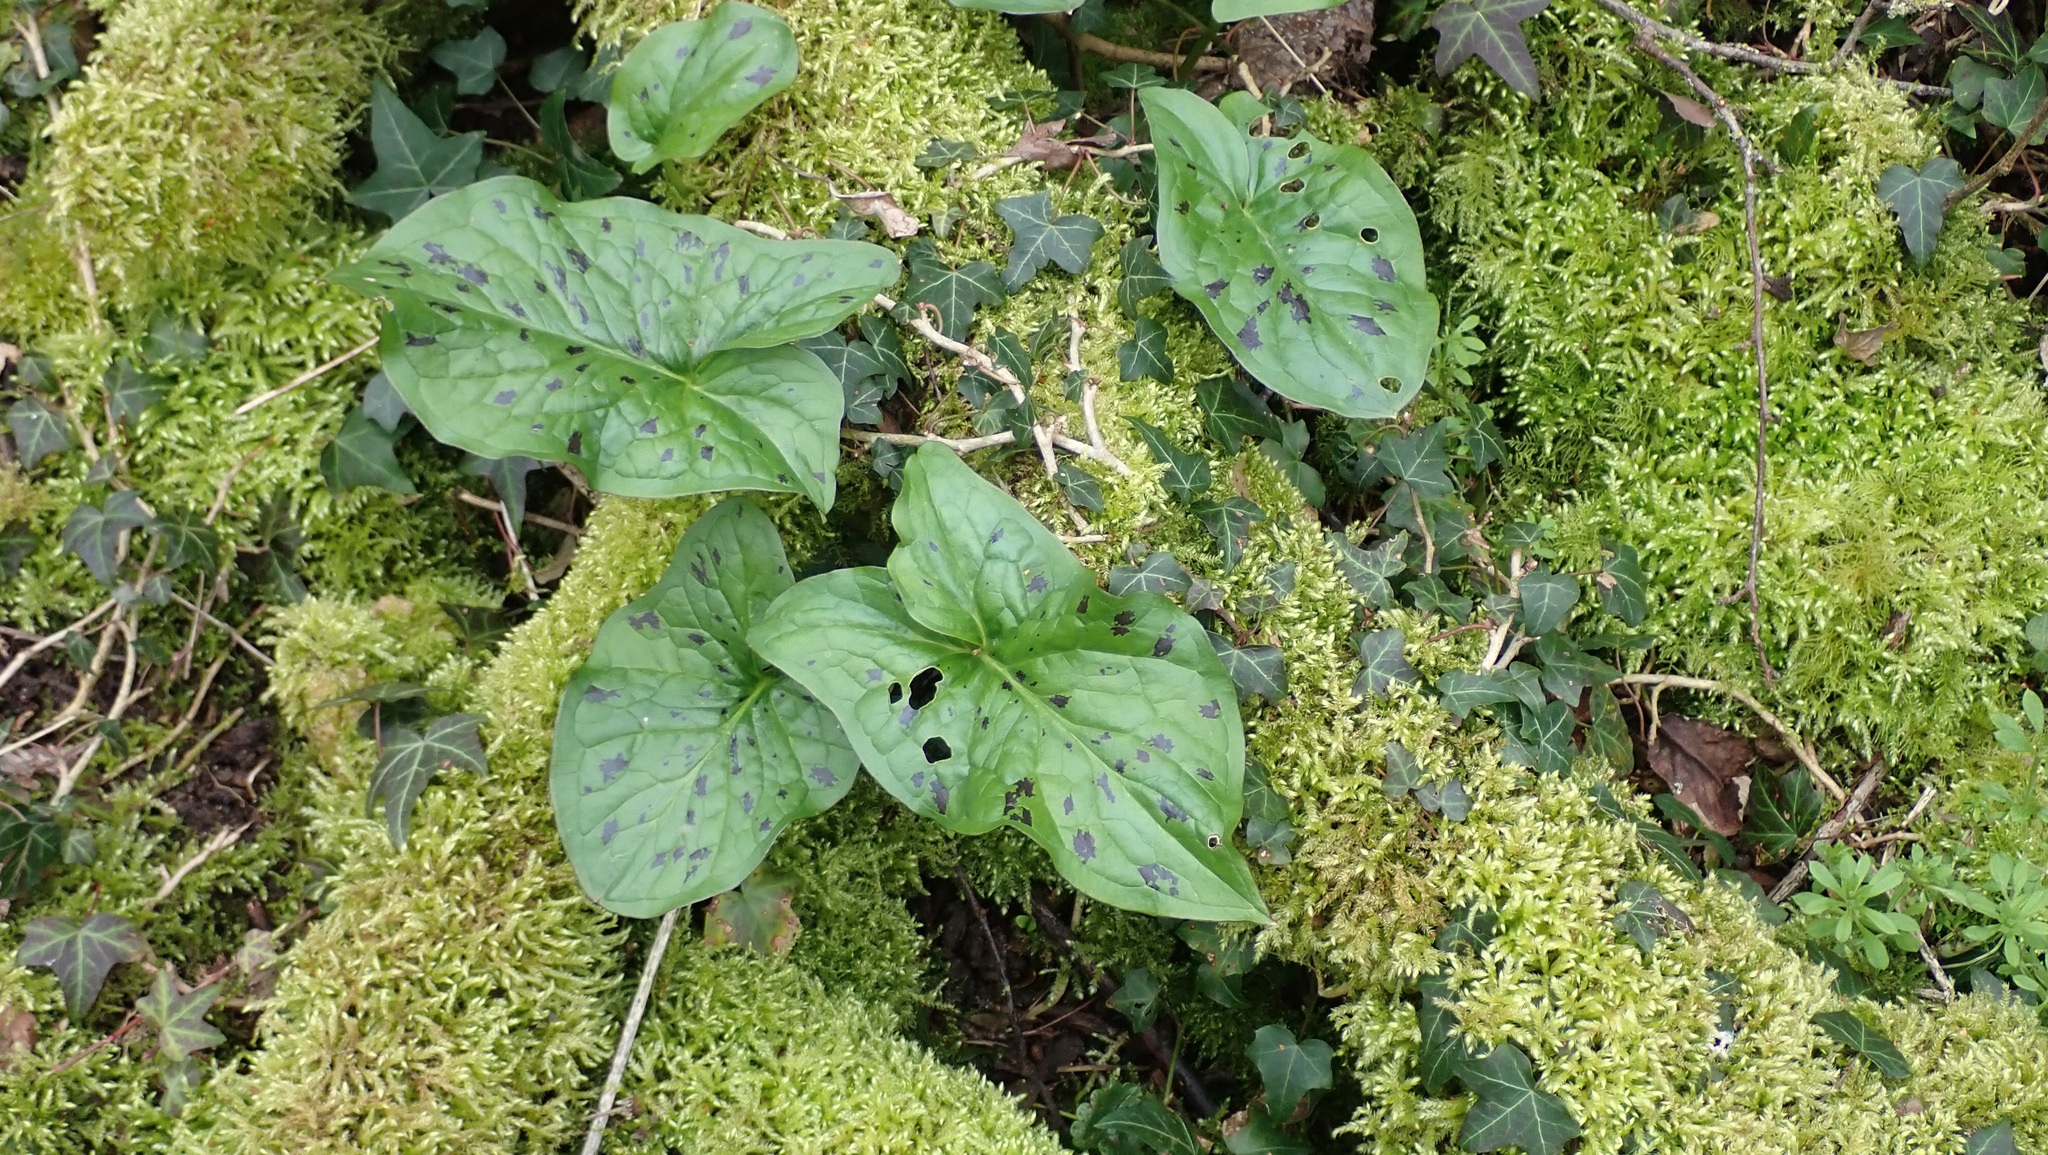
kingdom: Plantae
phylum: Tracheophyta
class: Liliopsida
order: Alismatales
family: Araceae
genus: Arum
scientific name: Arum maculatum
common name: Lords-and-ladies
